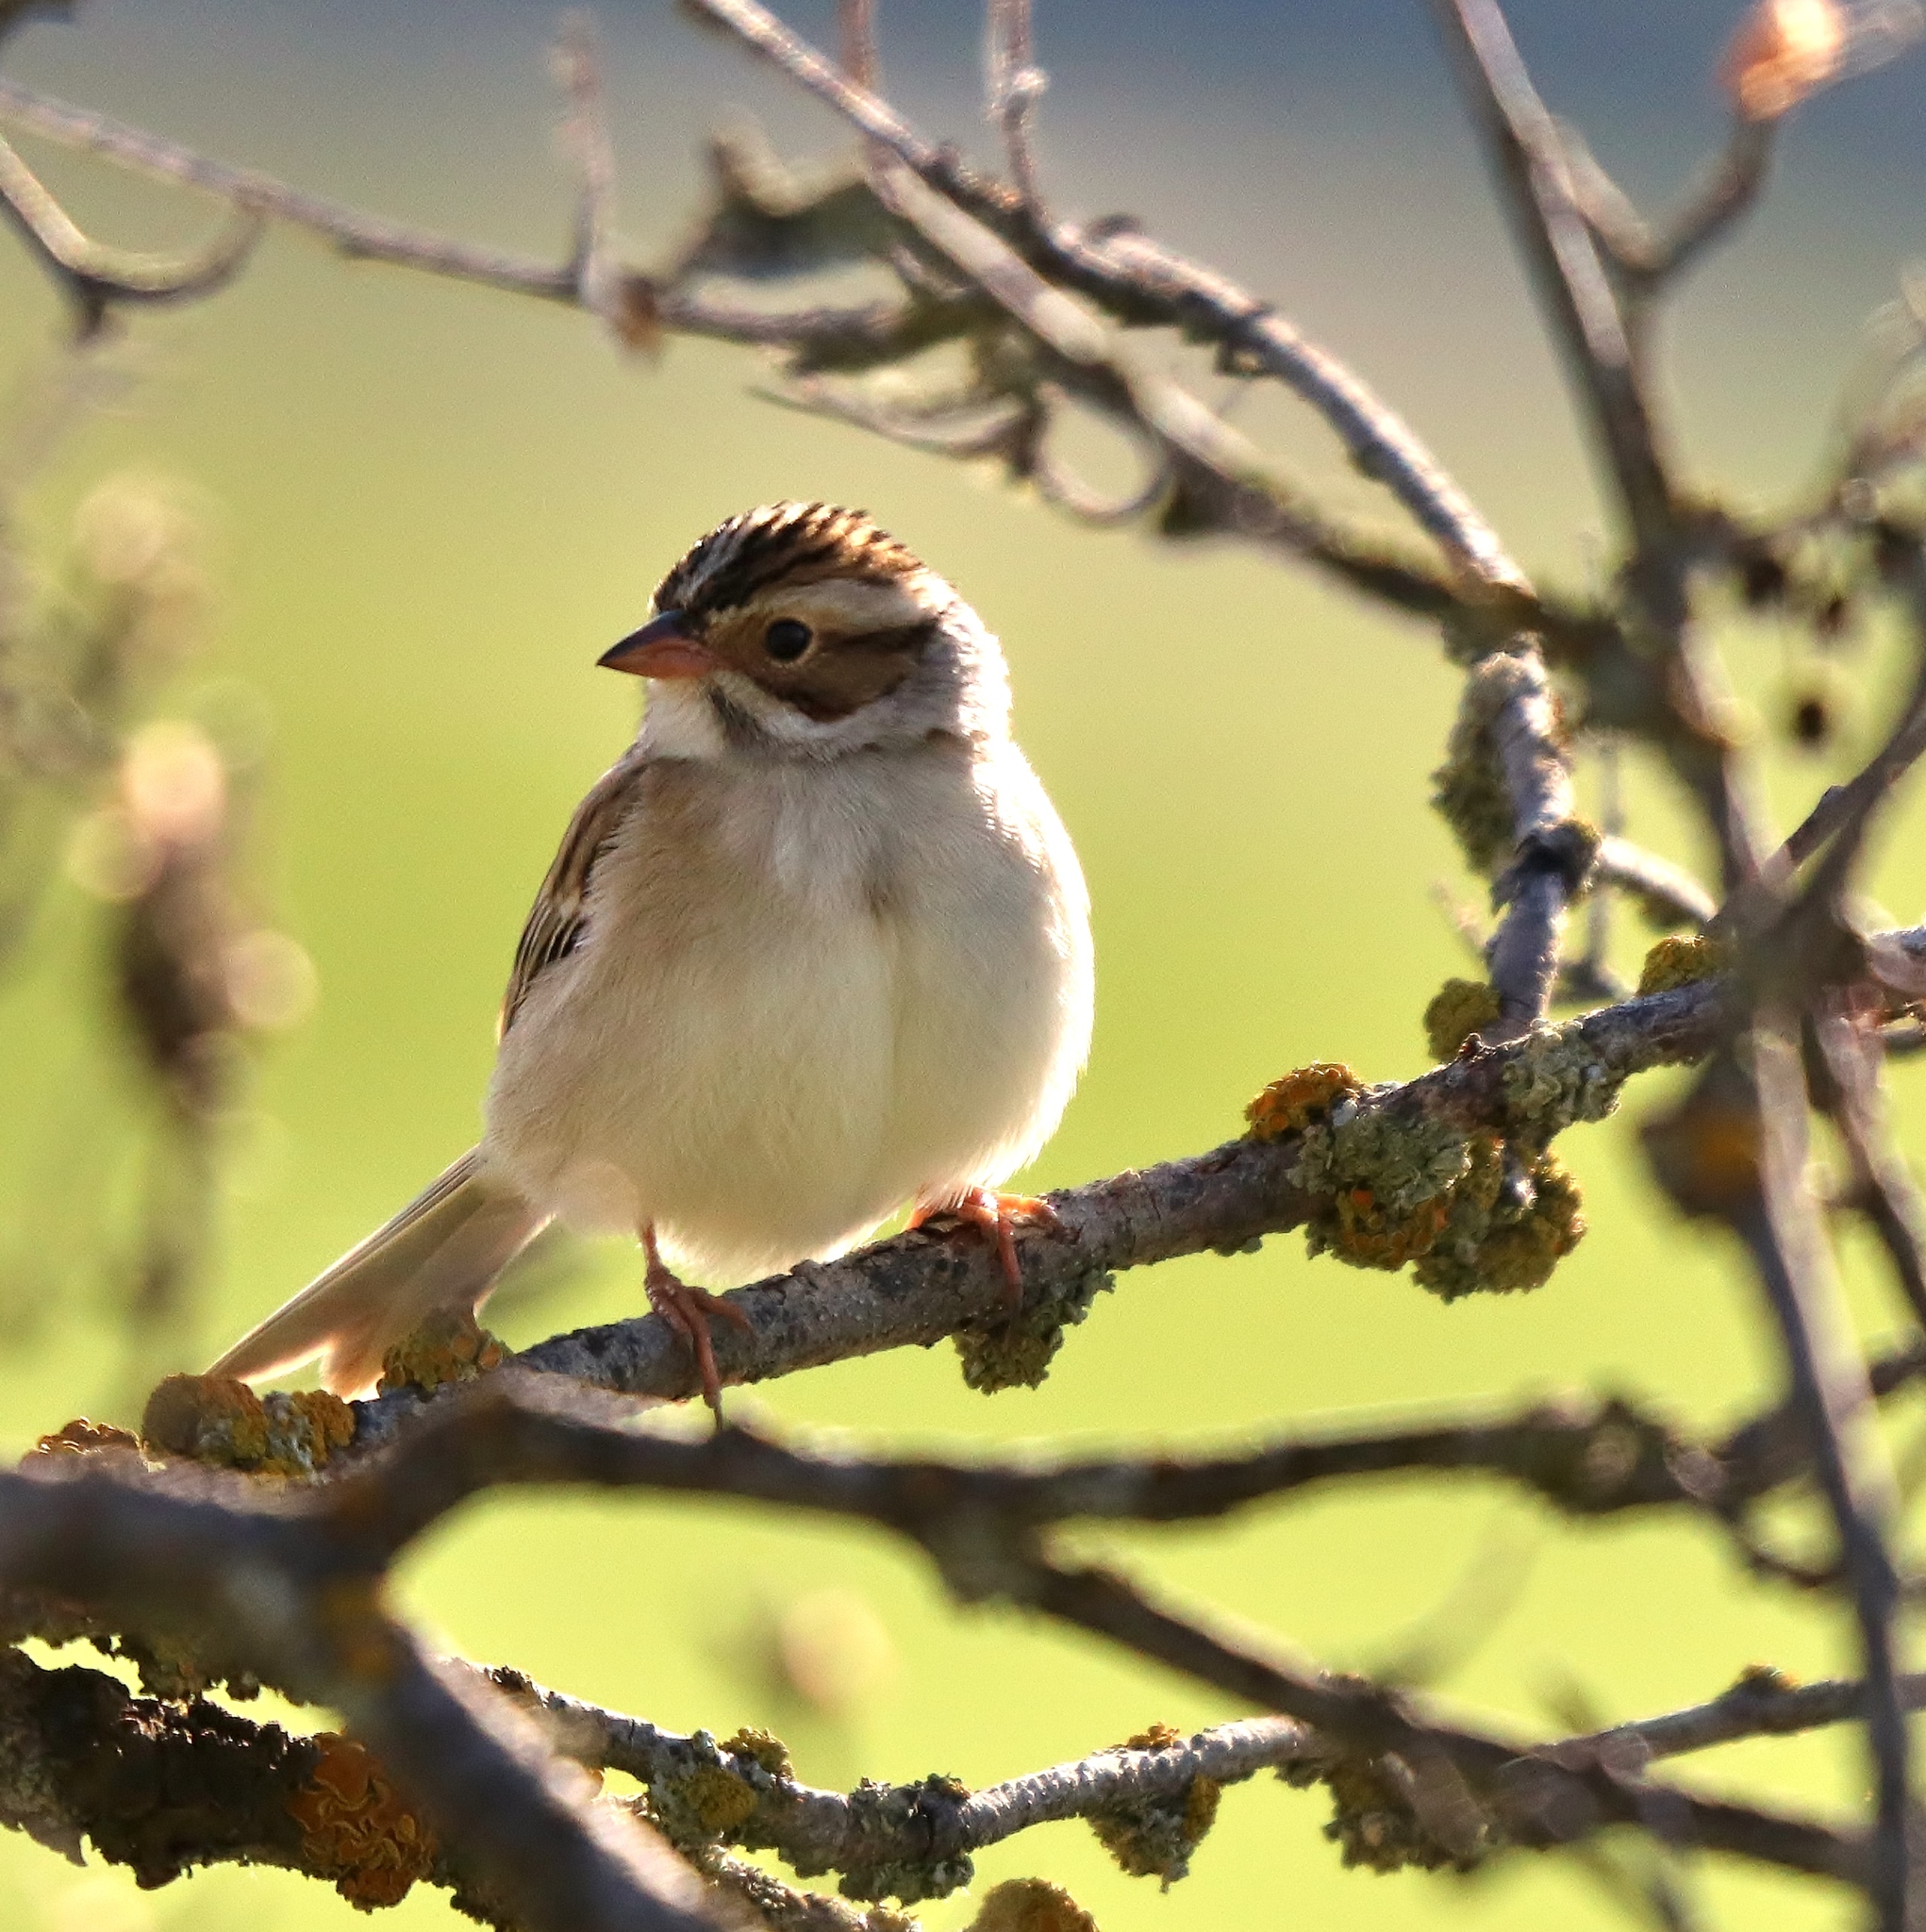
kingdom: Animalia
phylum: Chordata
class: Aves
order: Passeriformes
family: Passerellidae
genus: Spizella
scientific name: Spizella pallida
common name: Clay-colored sparrow
